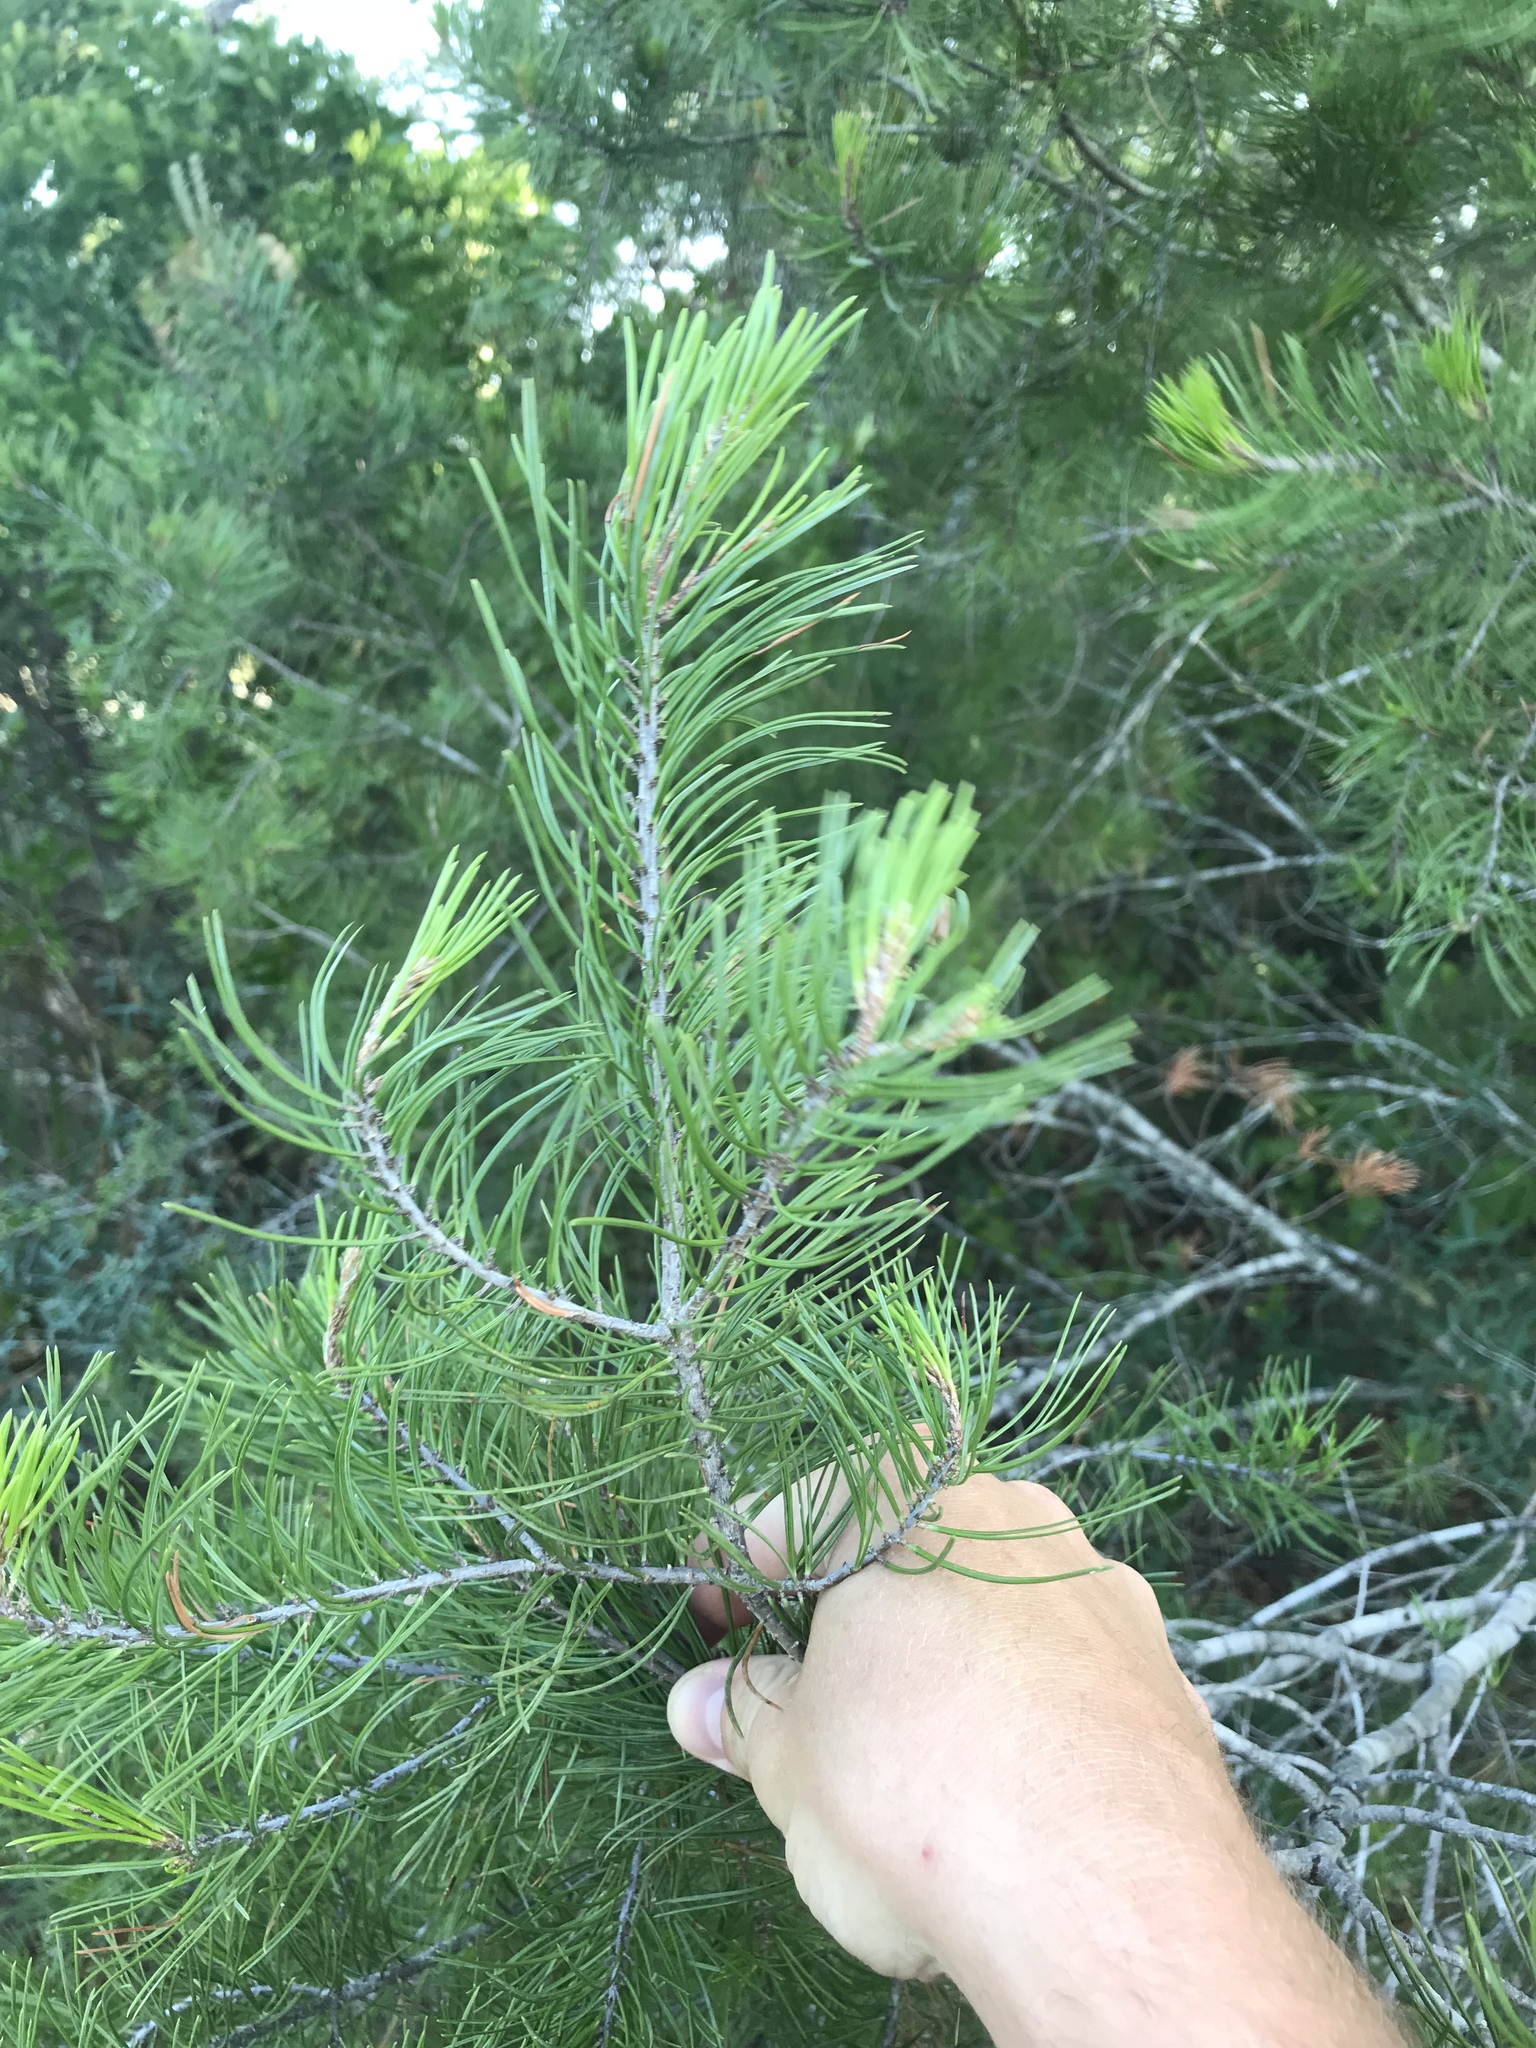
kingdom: Plantae
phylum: Tracheophyta
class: Pinopsida
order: Pinales
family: Pinaceae
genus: Pinus
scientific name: Pinus remota
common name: Nut pine
